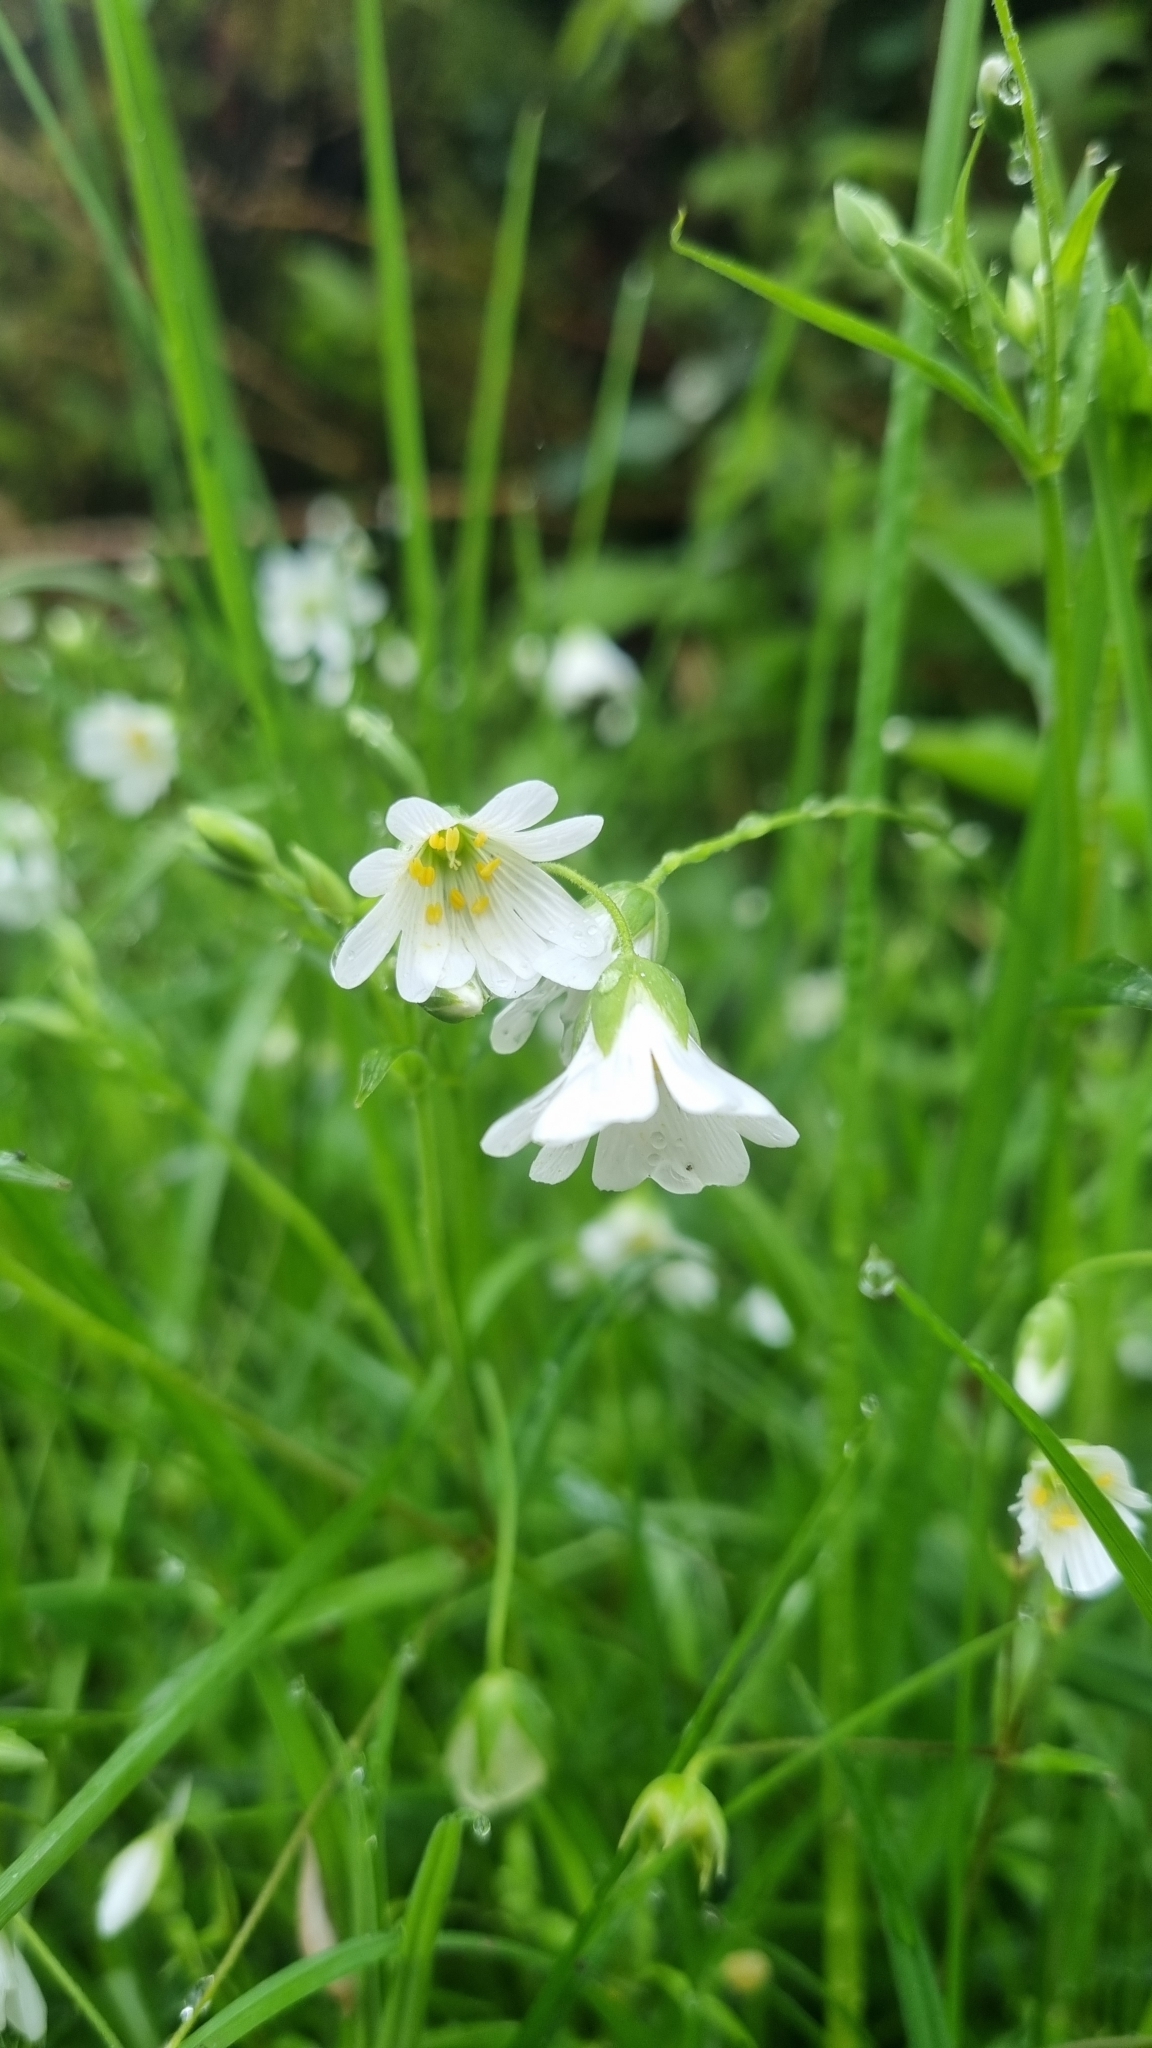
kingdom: Plantae
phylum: Tracheophyta
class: Magnoliopsida
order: Caryophyllales
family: Caryophyllaceae
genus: Rabelera
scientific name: Rabelera holostea
